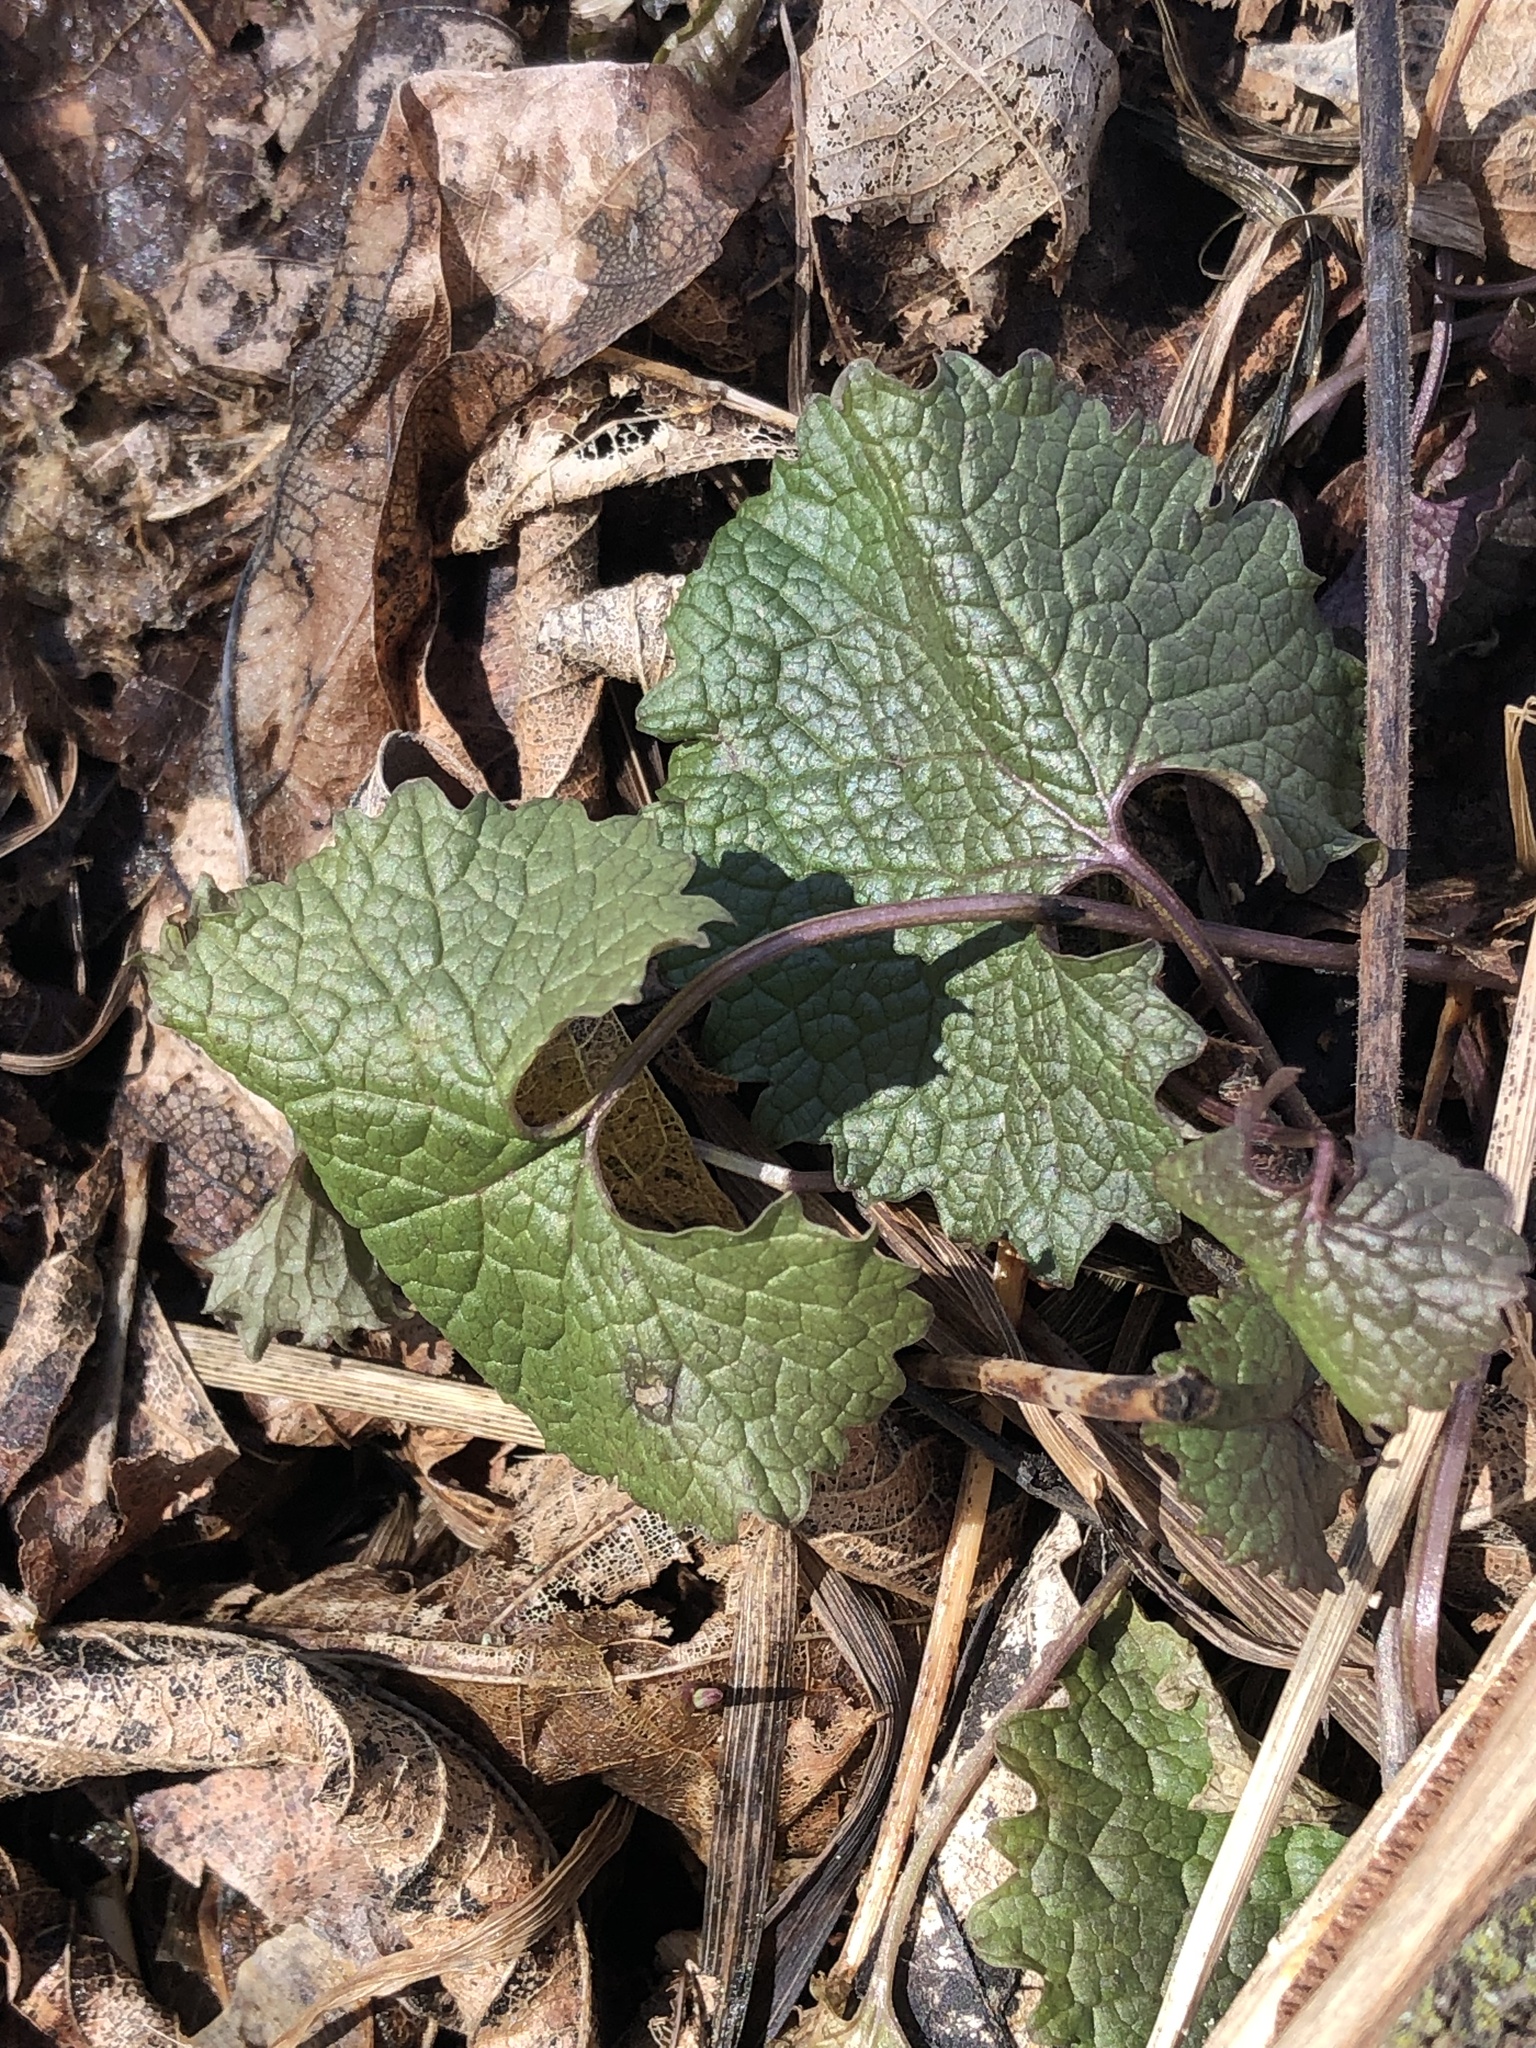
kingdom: Plantae
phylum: Tracheophyta
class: Magnoliopsida
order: Brassicales
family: Brassicaceae
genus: Alliaria
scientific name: Alliaria petiolata
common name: Garlic mustard
